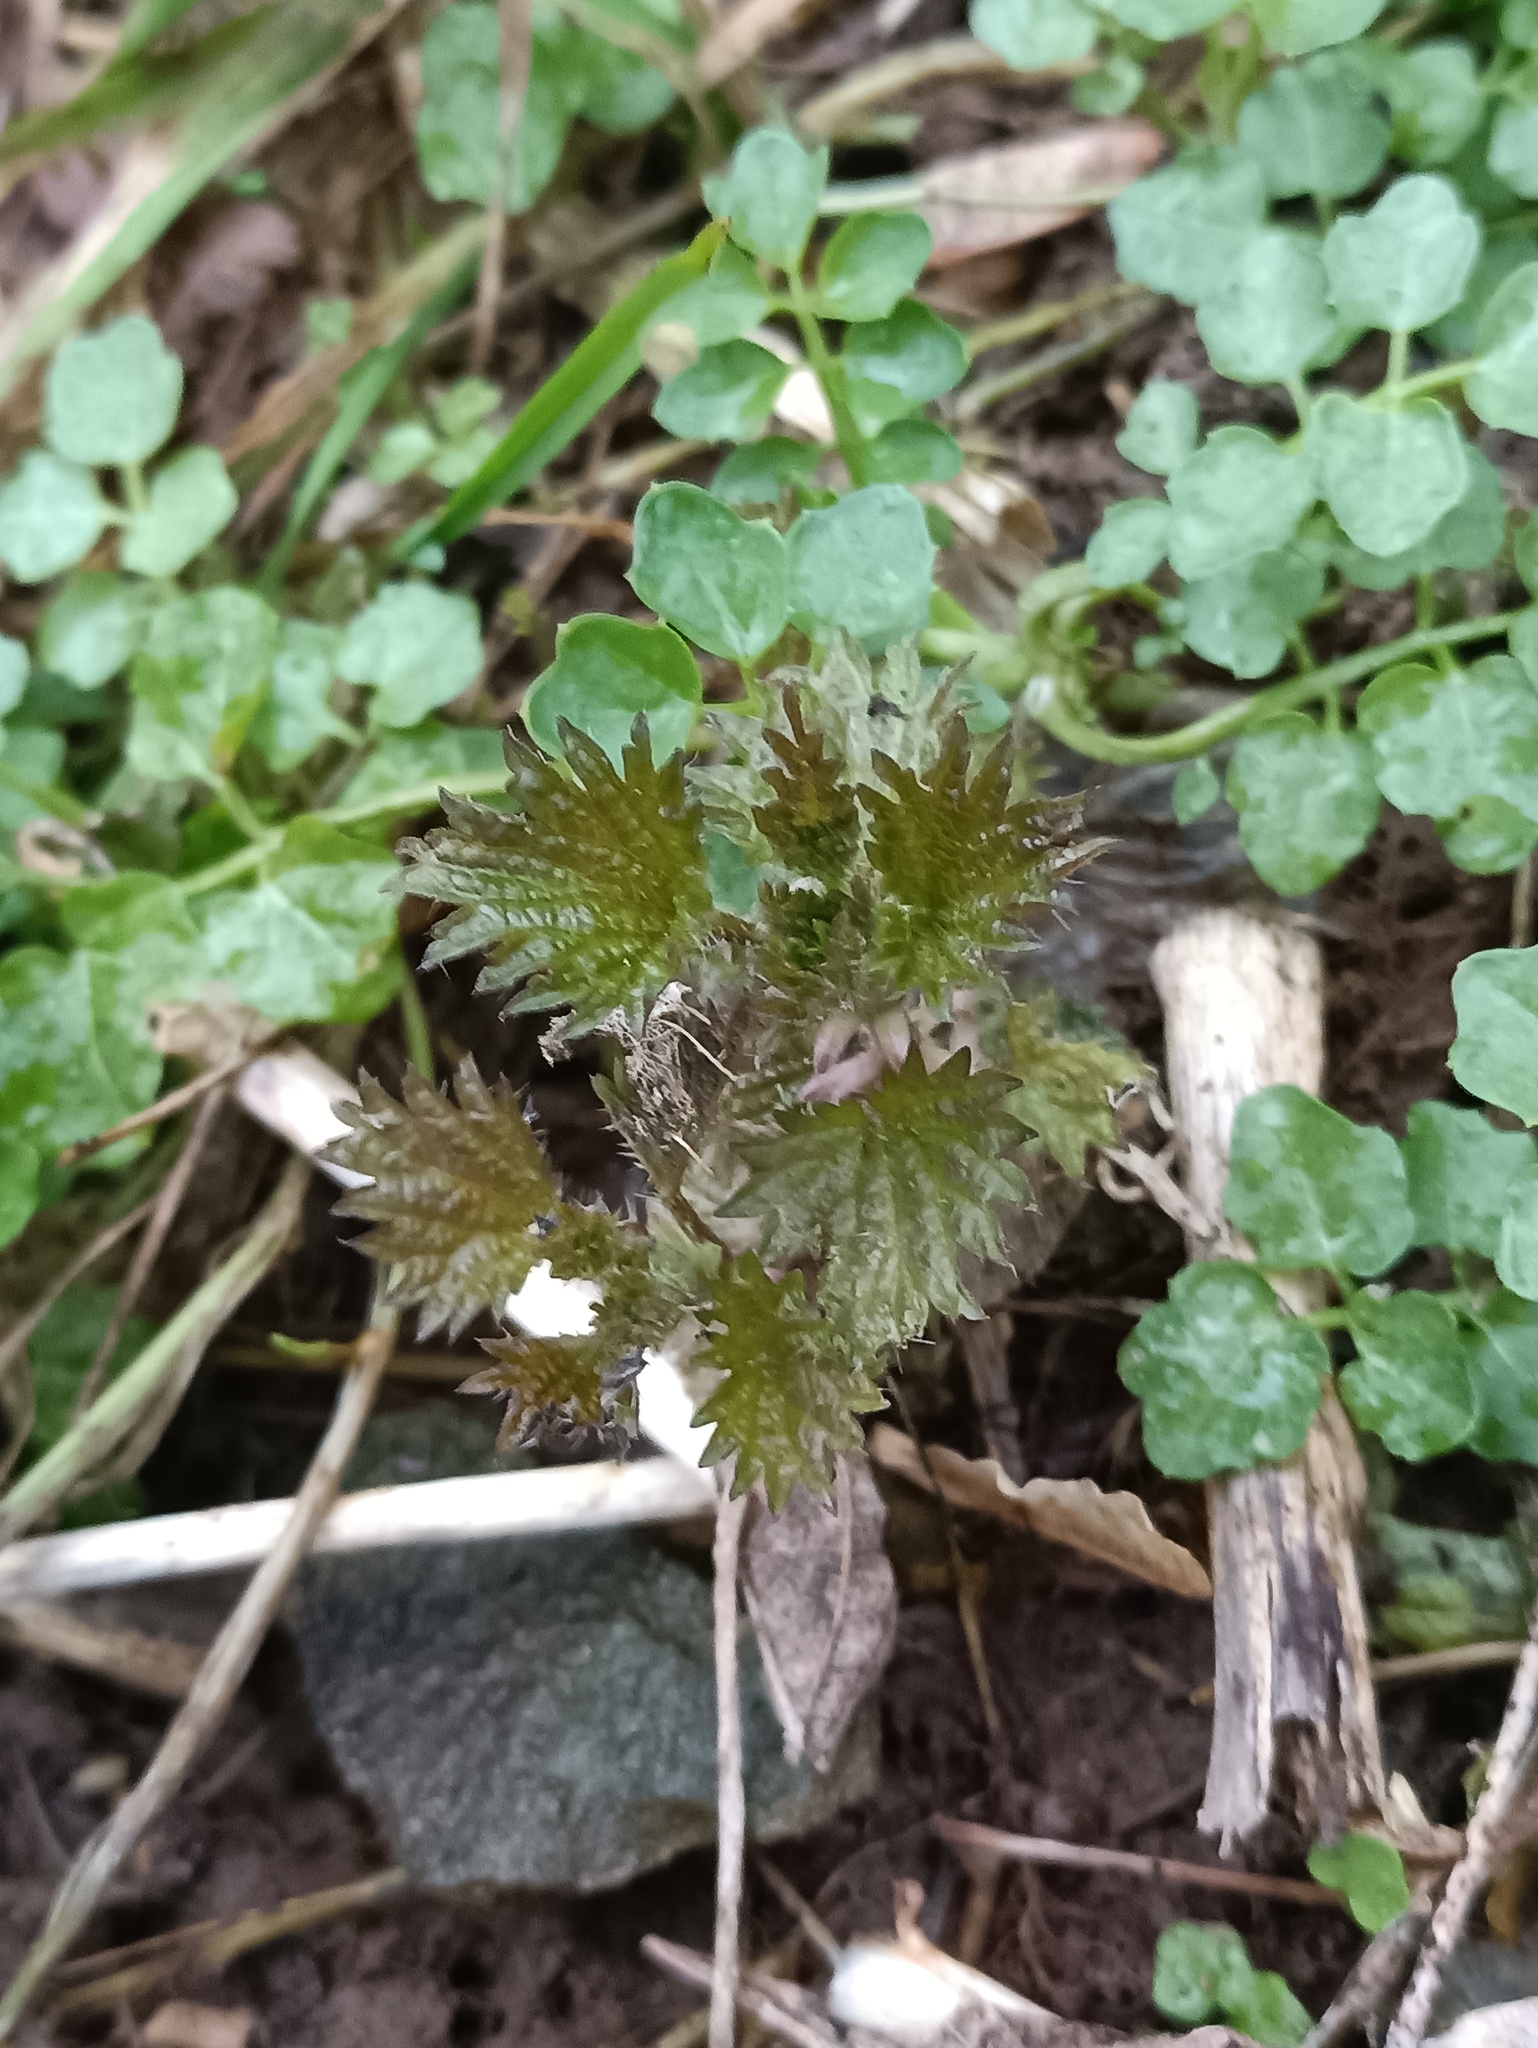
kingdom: Plantae
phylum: Tracheophyta
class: Magnoliopsida
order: Rosales
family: Urticaceae
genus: Urtica
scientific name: Urtica dioica
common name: Common nettle
